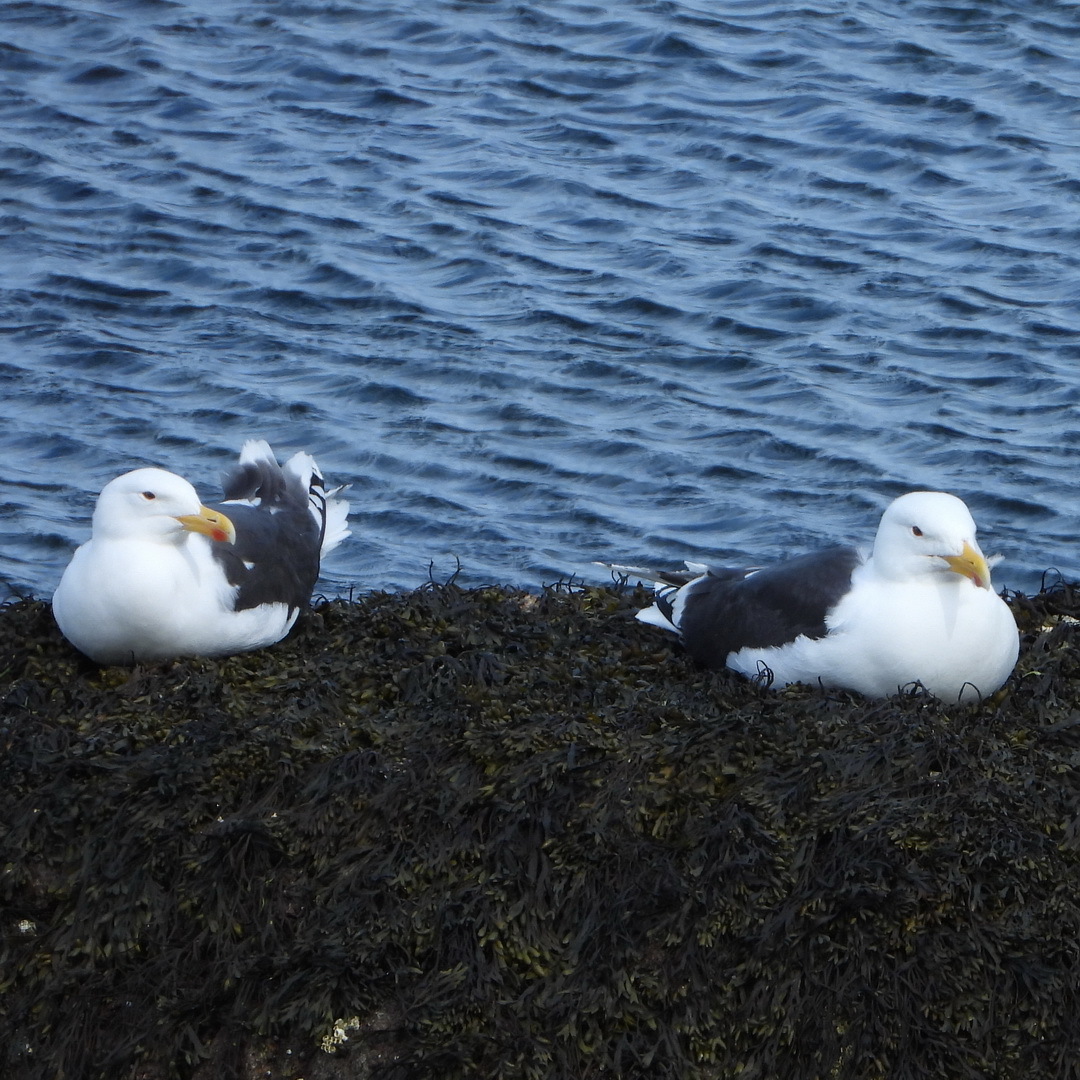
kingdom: Animalia
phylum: Chordata
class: Aves
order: Charadriiformes
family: Laridae
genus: Larus
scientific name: Larus marinus
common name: Great black-backed gull
